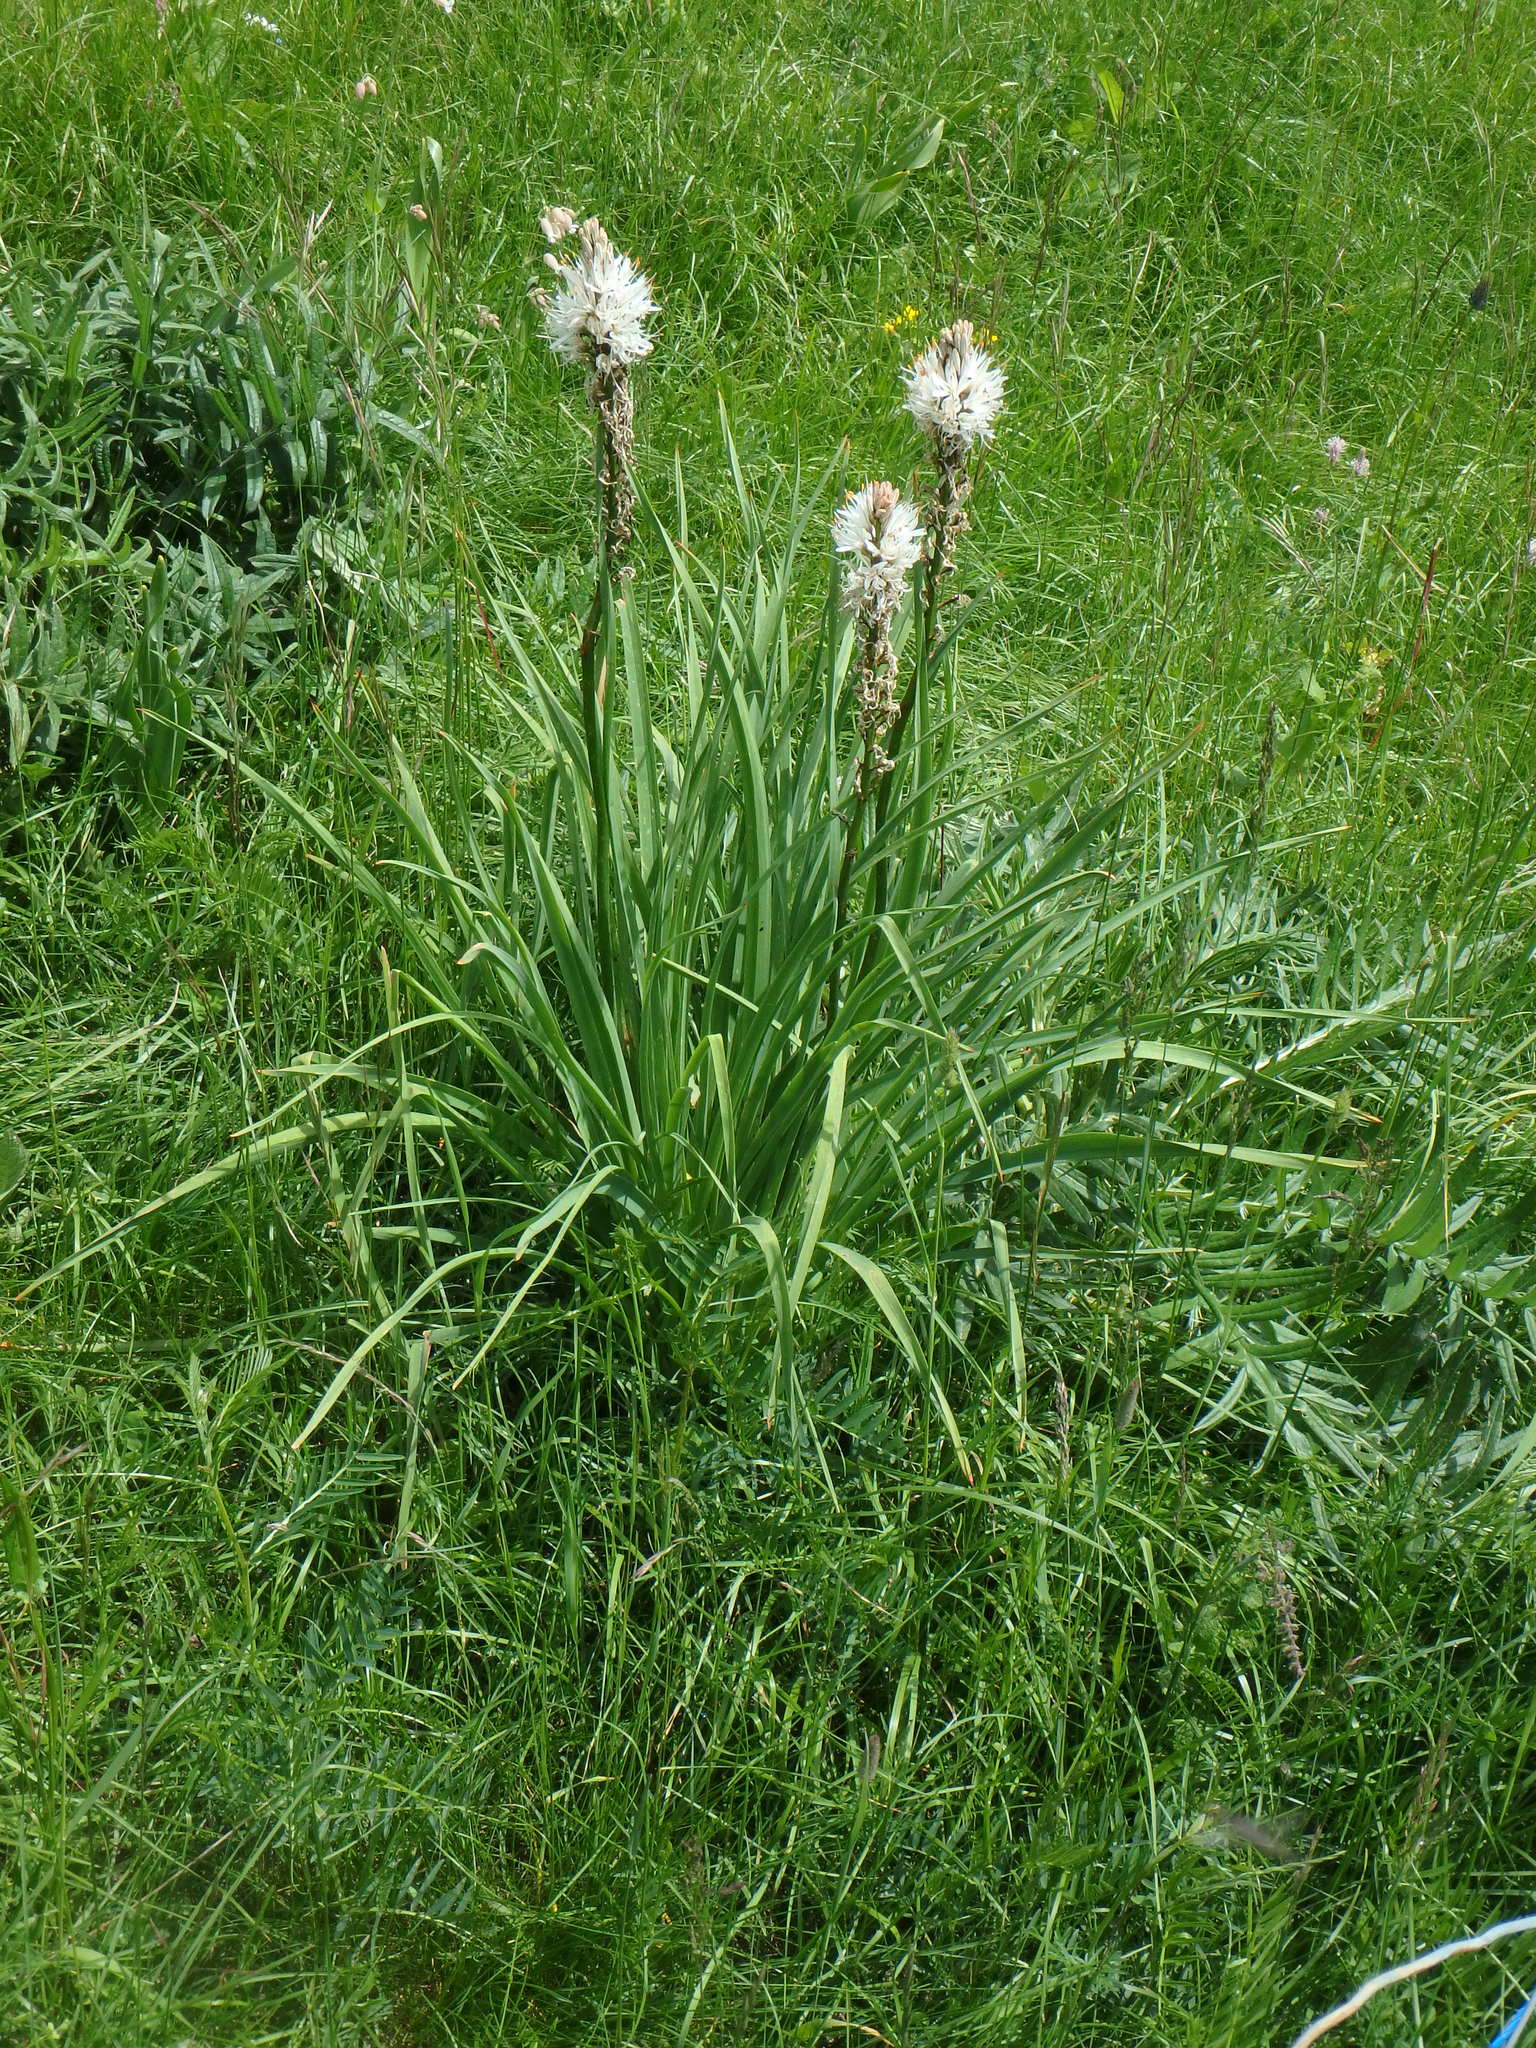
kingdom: Plantae
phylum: Tracheophyta
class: Liliopsida
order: Asparagales
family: Asphodelaceae
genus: Asphodelus
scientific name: Asphodelus albus
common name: White asphodel
